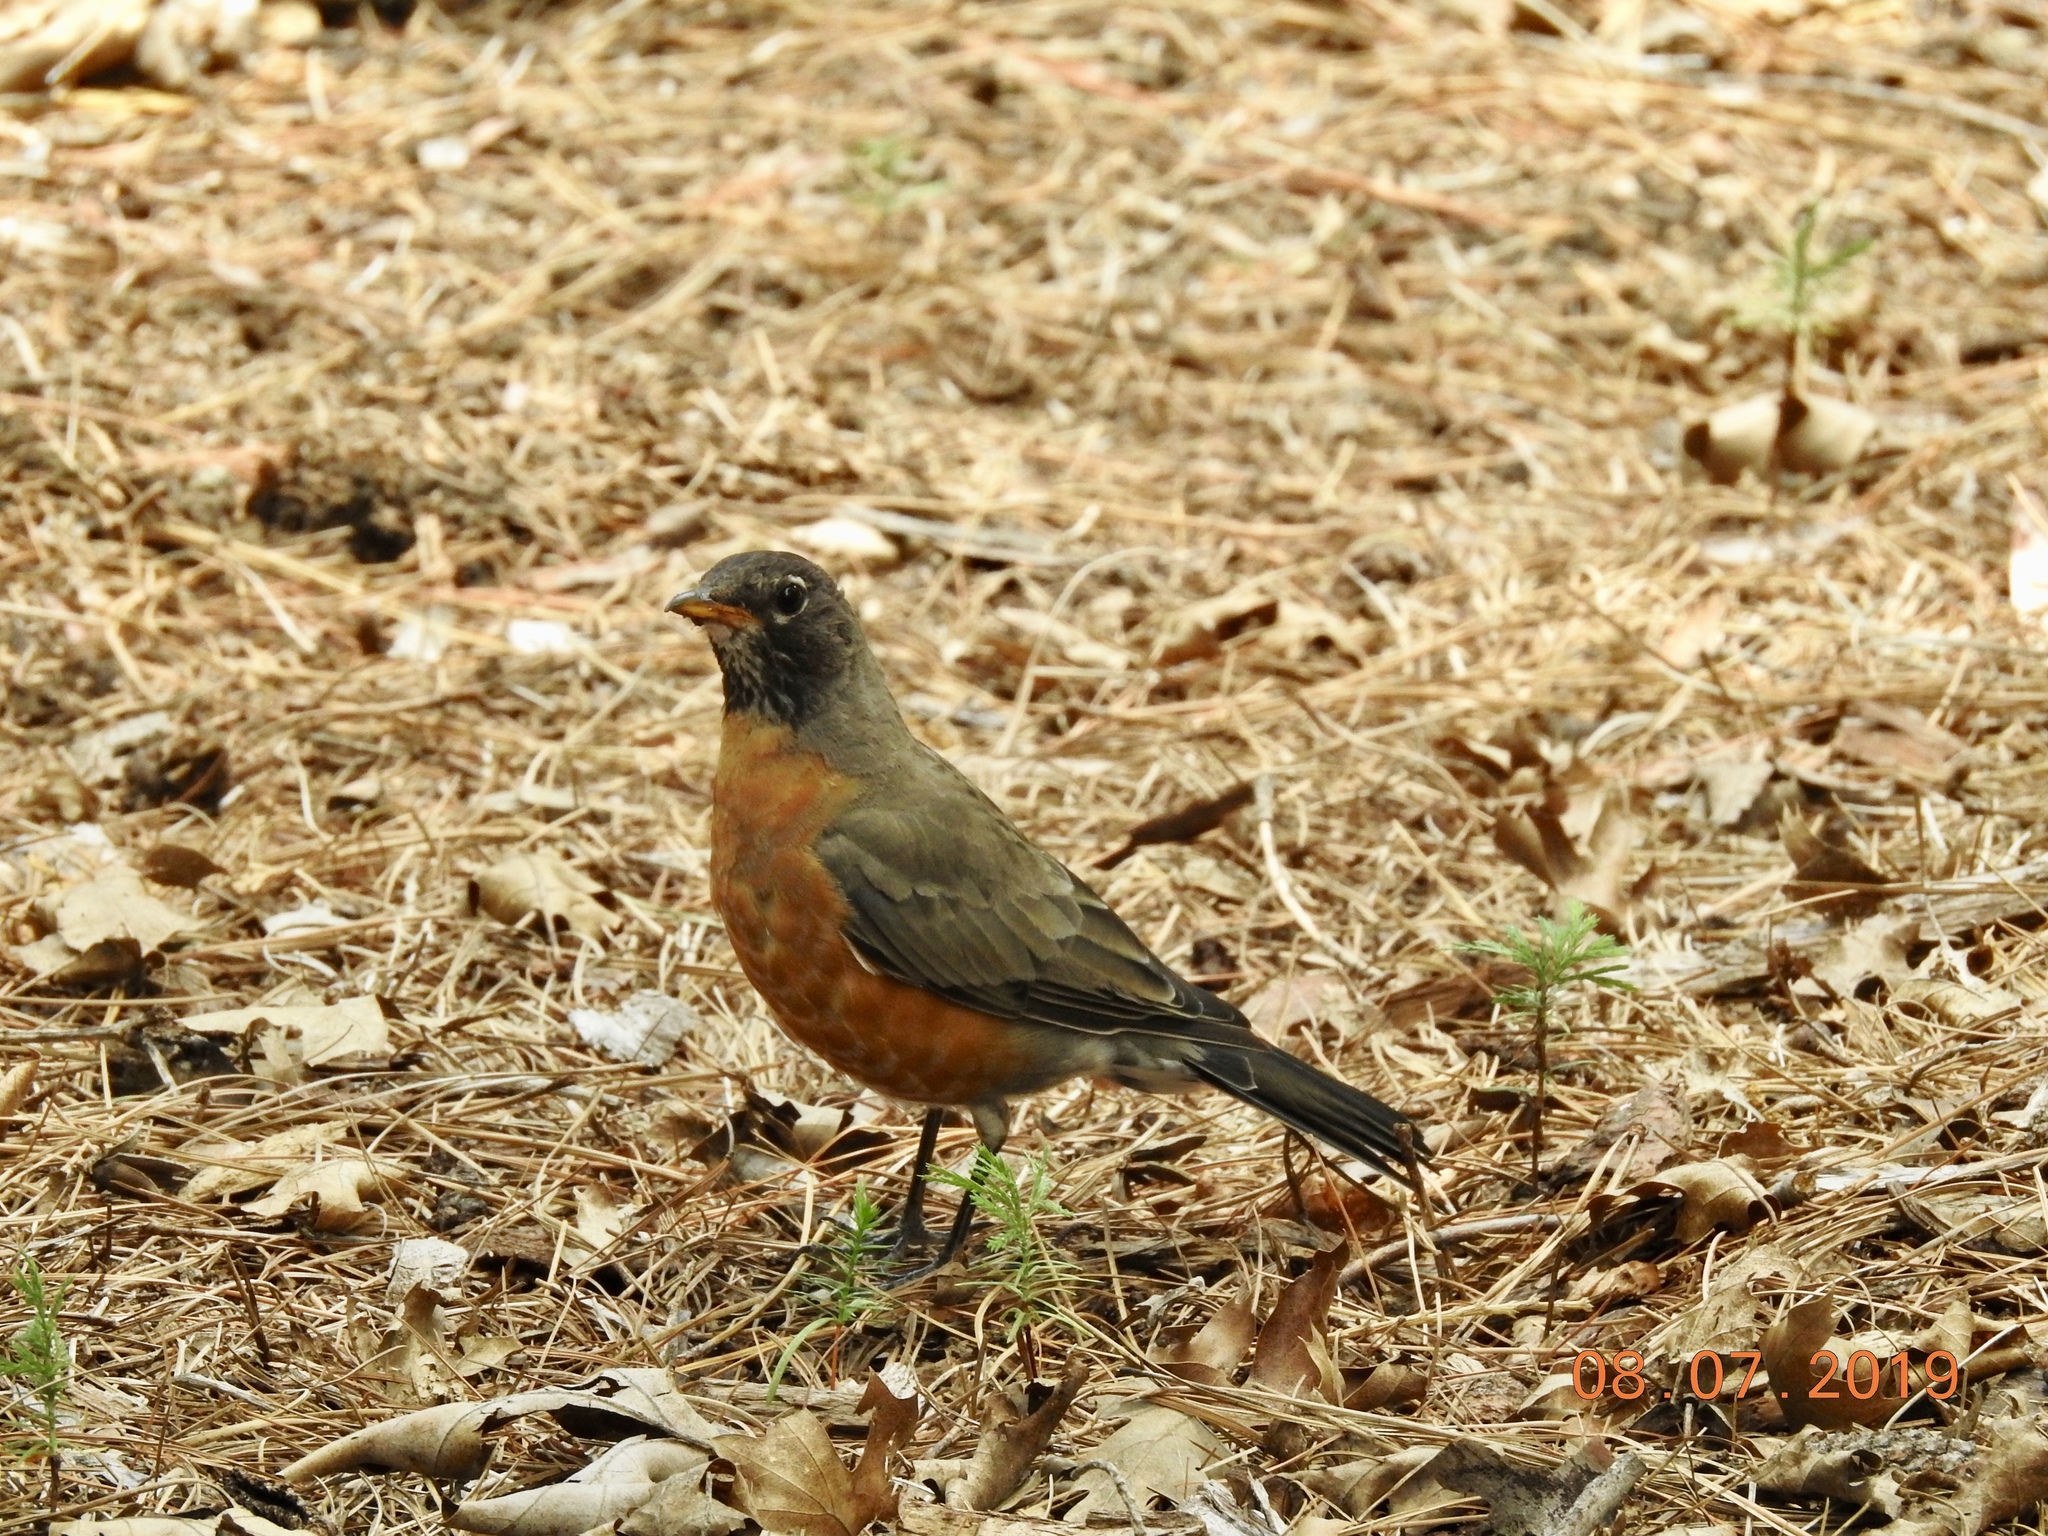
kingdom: Animalia
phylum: Chordata
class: Aves
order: Passeriformes
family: Turdidae
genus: Turdus
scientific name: Turdus migratorius
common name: American robin
